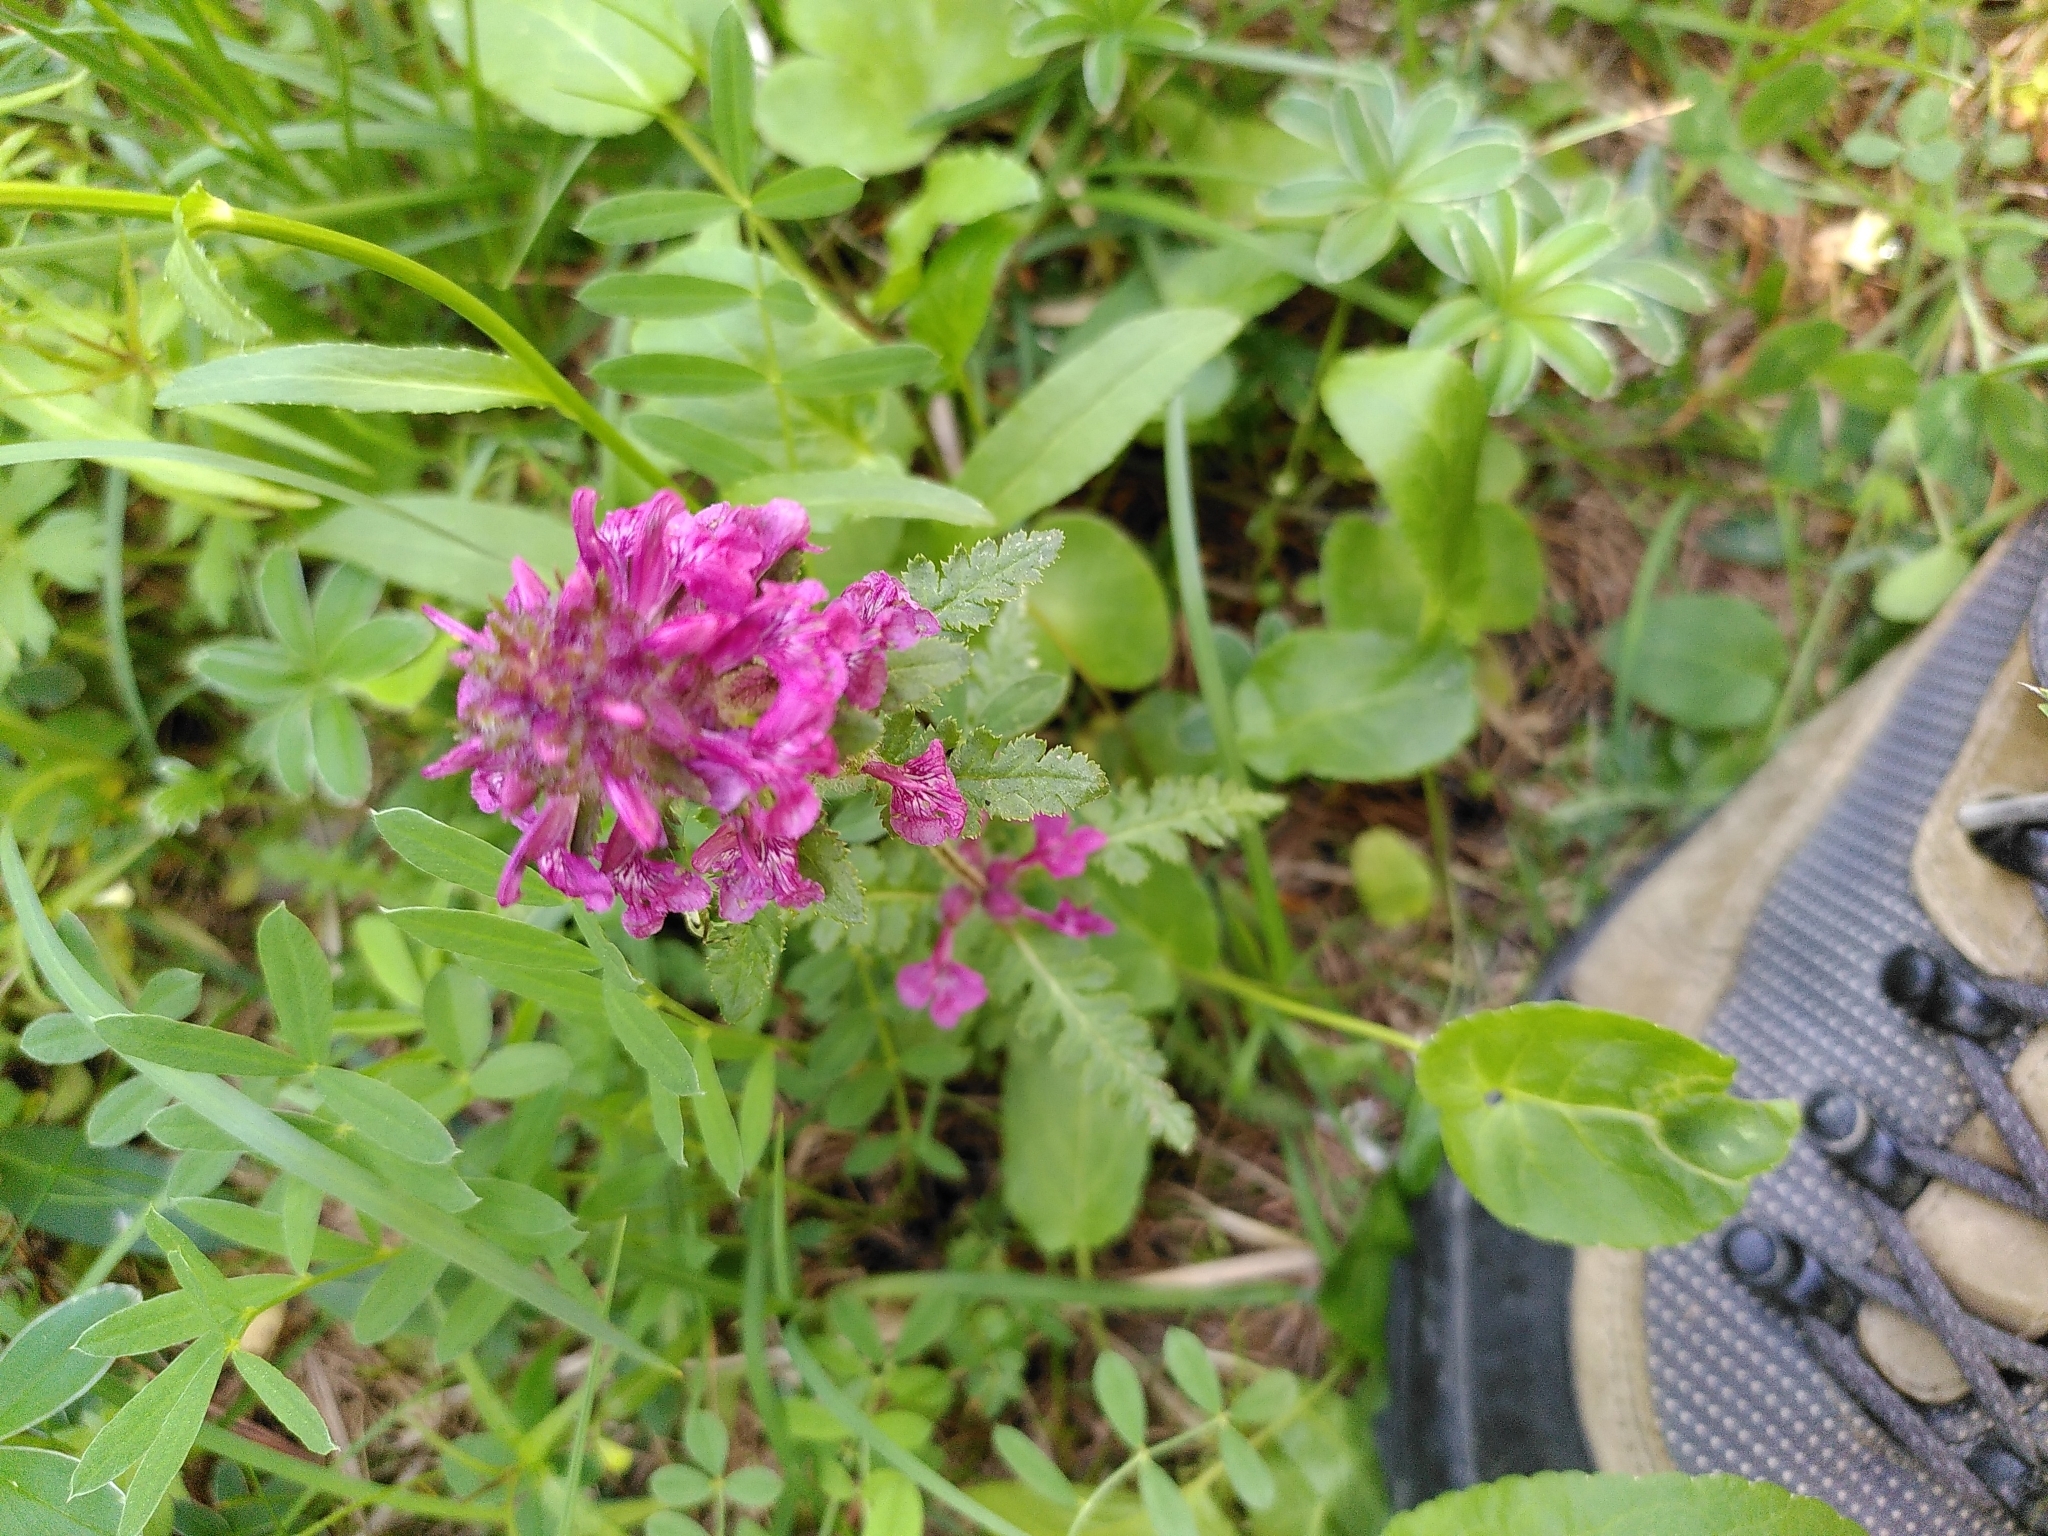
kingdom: Plantae
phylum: Tracheophyta
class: Magnoliopsida
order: Lamiales
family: Orobanchaceae
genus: Pedicularis
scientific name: Pedicularis verticillata
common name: Whorled lousewort
